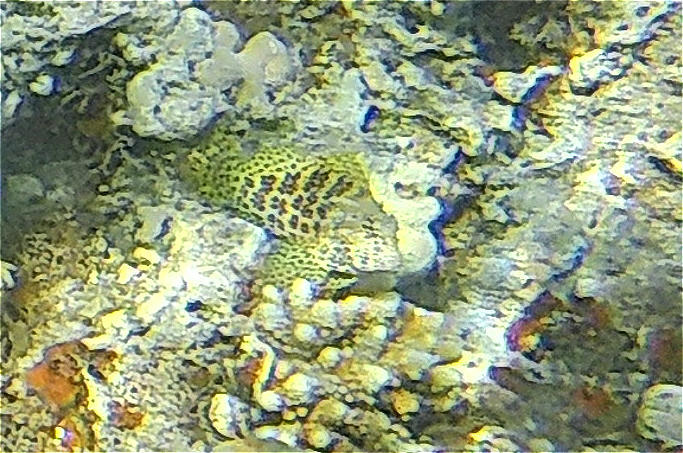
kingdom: Animalia
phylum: Chordata
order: Perciformes
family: Blenniidae
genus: Exallias
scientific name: Exallias brevis
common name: Leopard blenny
